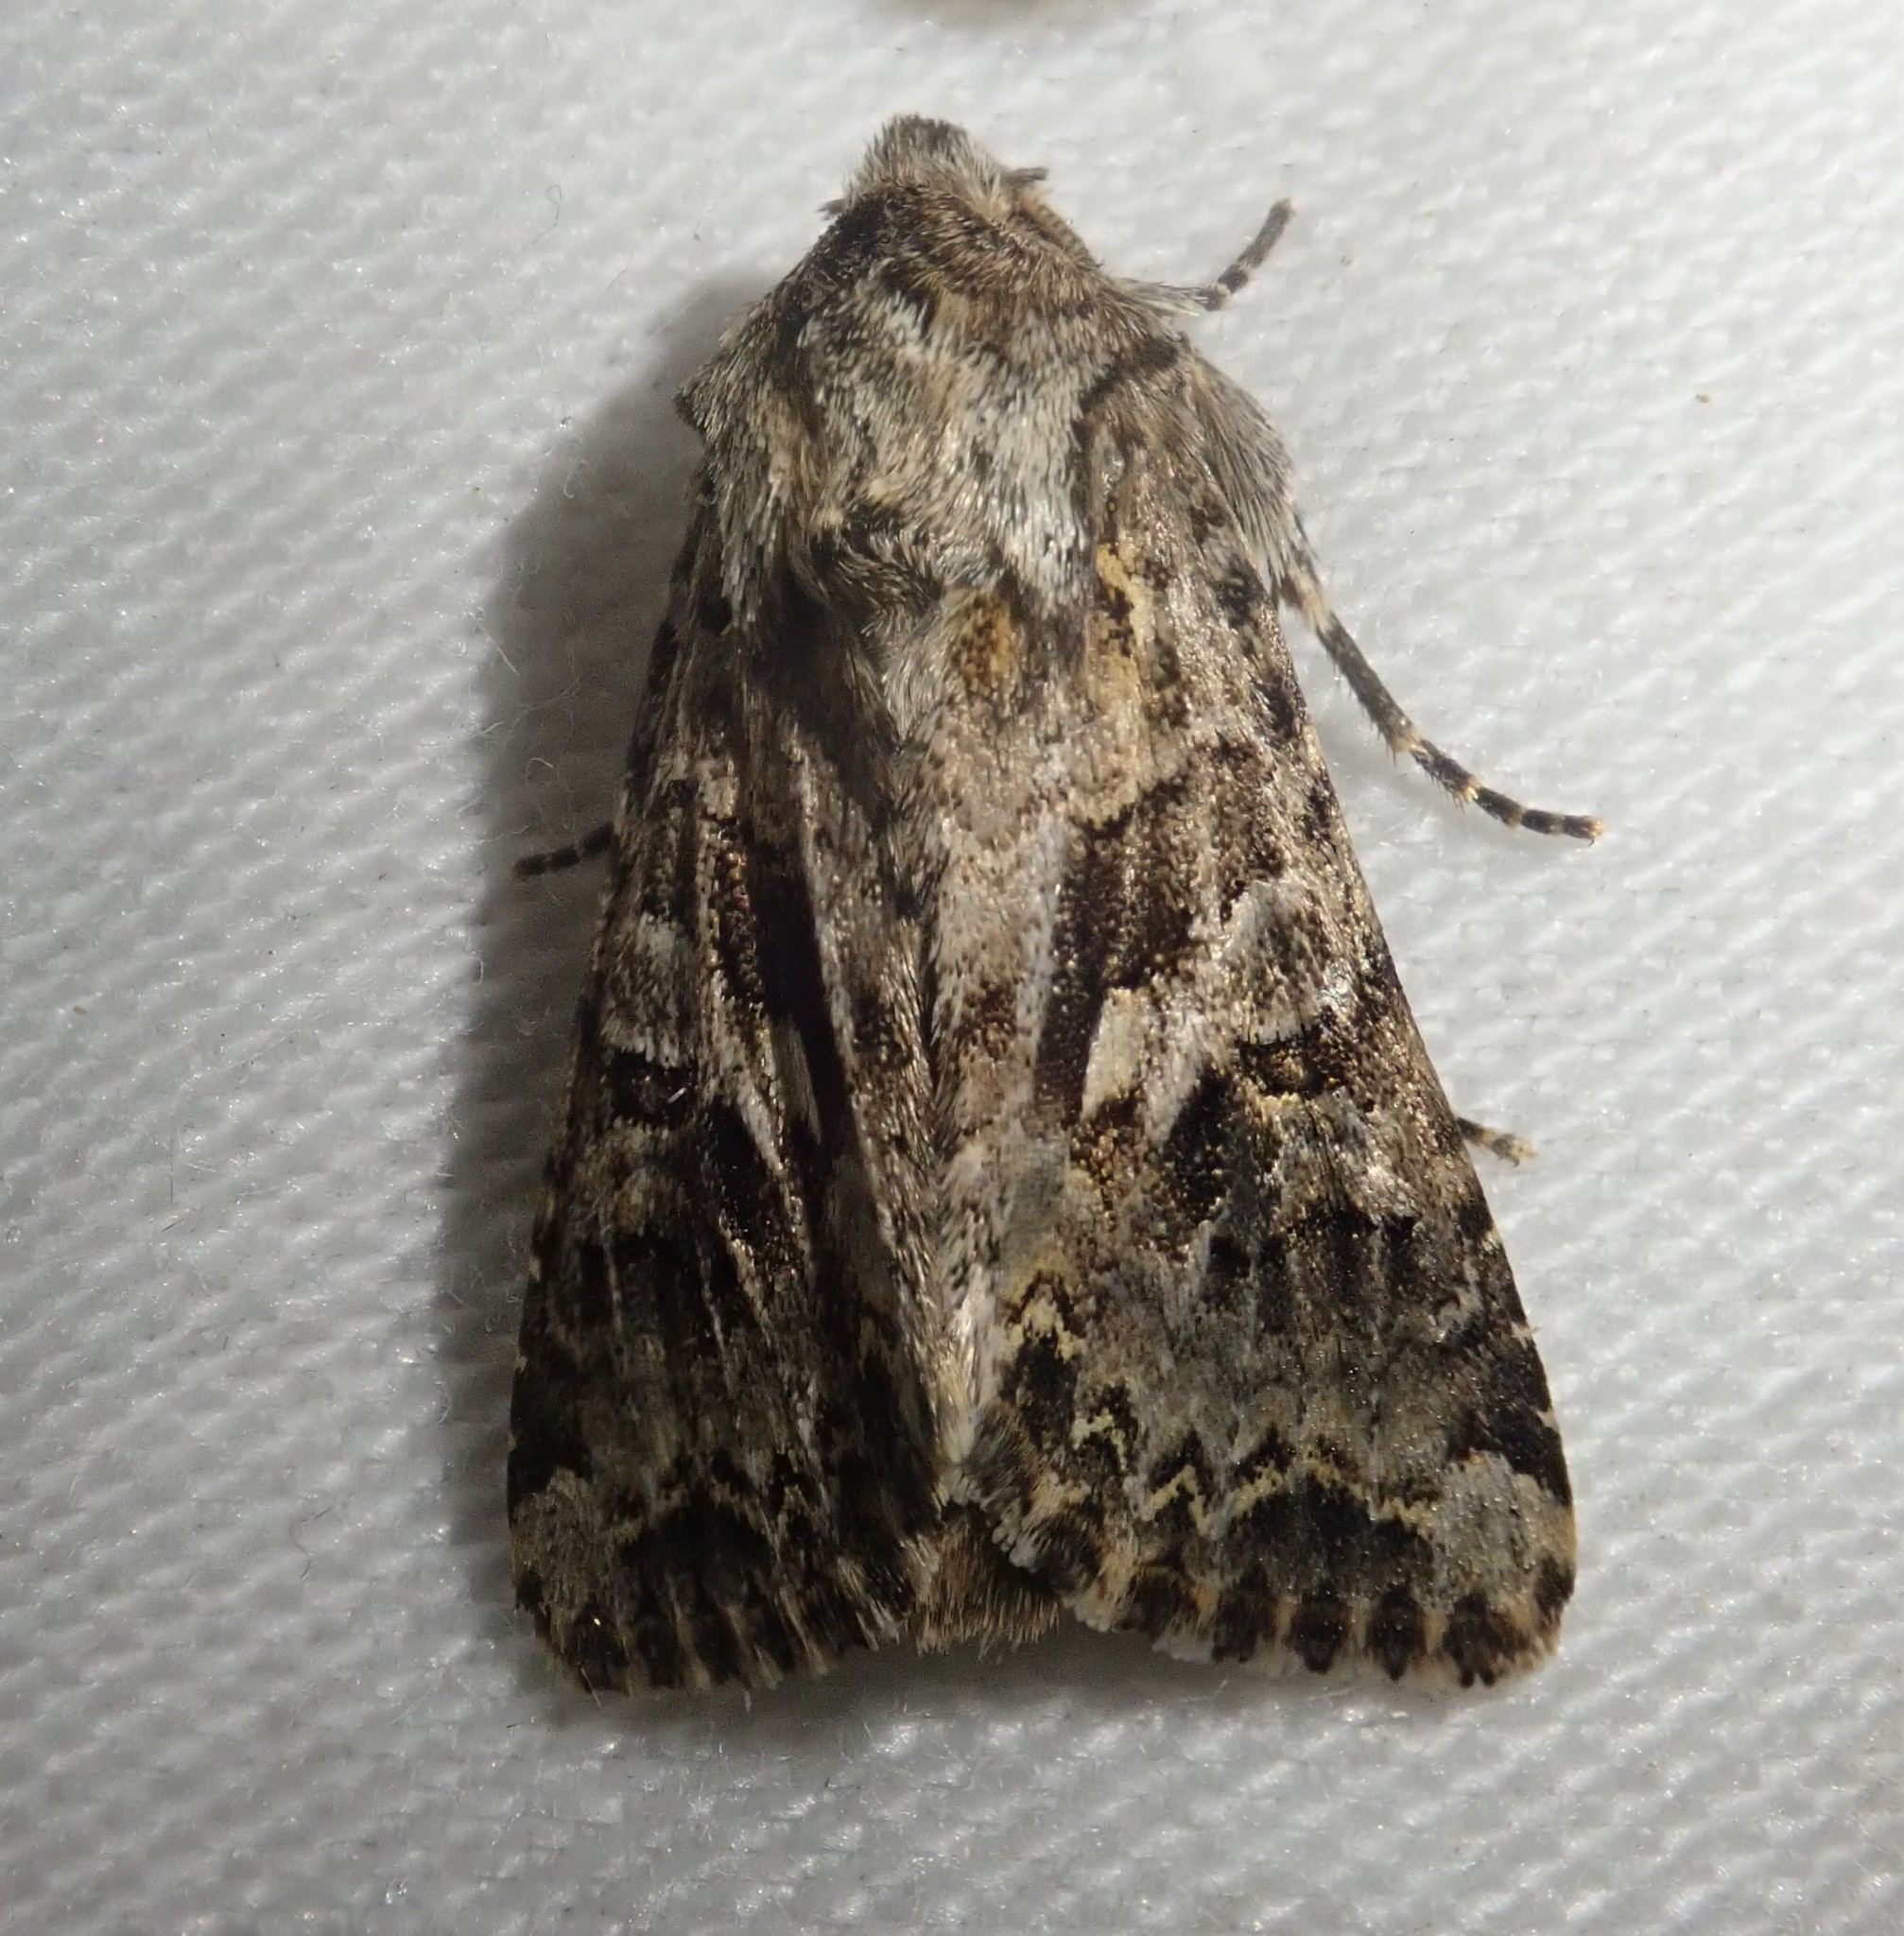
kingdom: Animalia
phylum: Arthropoda
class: Insecta
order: Lepidoptera
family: Noctuidae
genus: Hada
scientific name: Hada plebeja
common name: Shears
